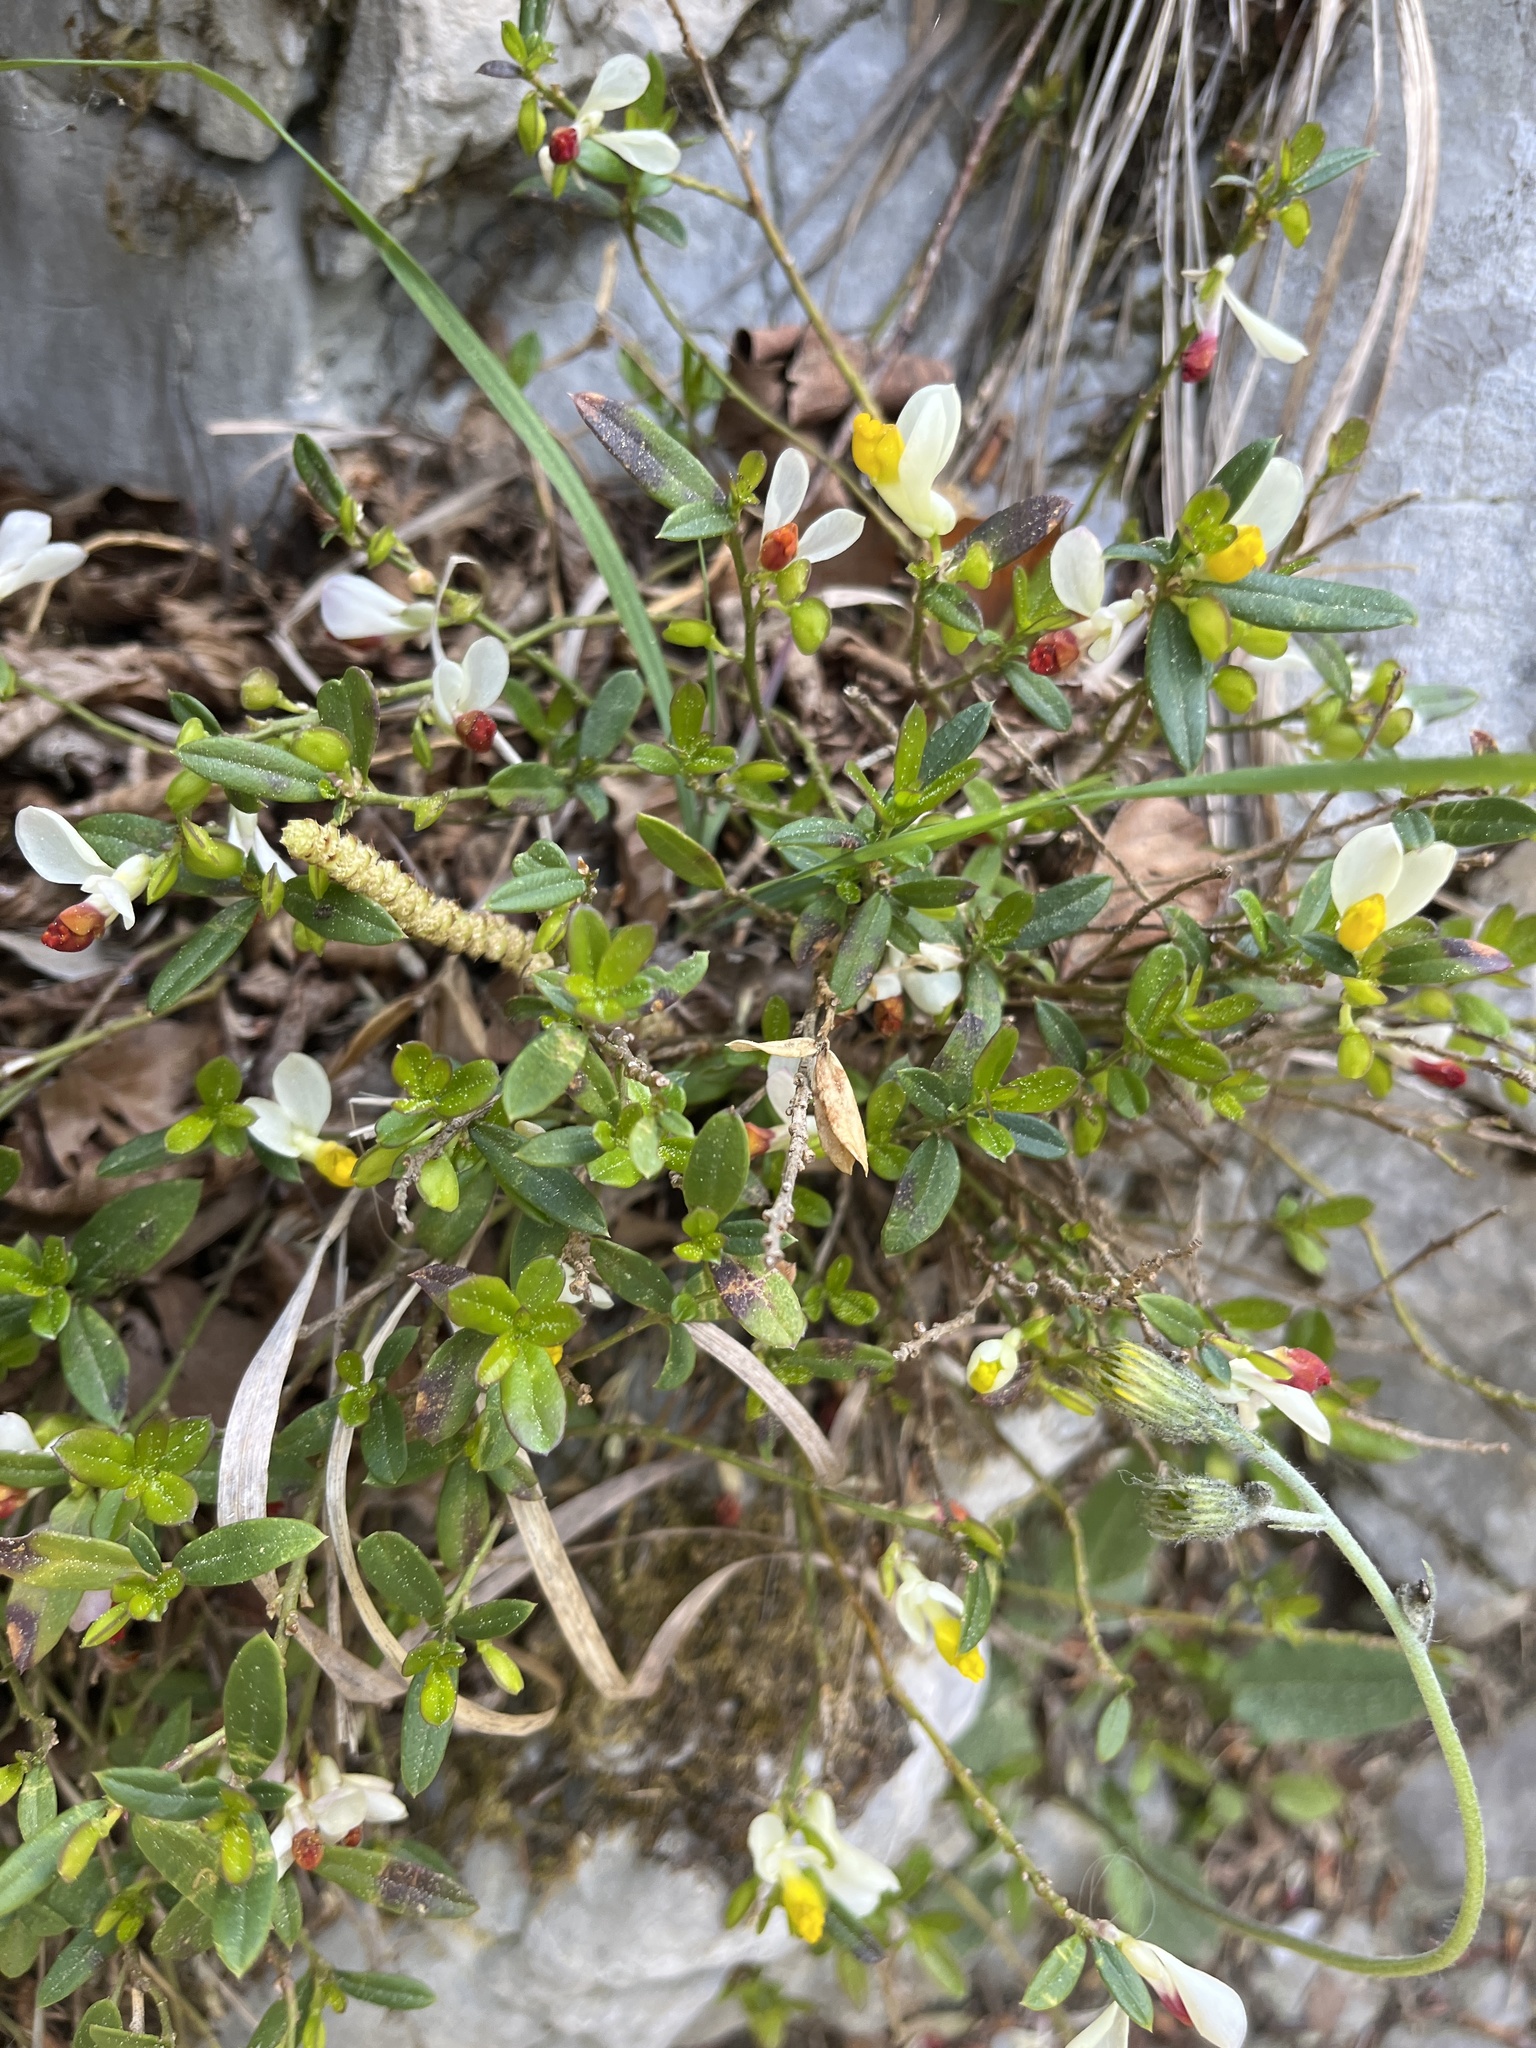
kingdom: Plantae
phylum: Tracheophyta
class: Magnoliopsida
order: Fabales
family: Polygalaceae
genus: Polygaloides
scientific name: Polygaloides chamaebuxus
